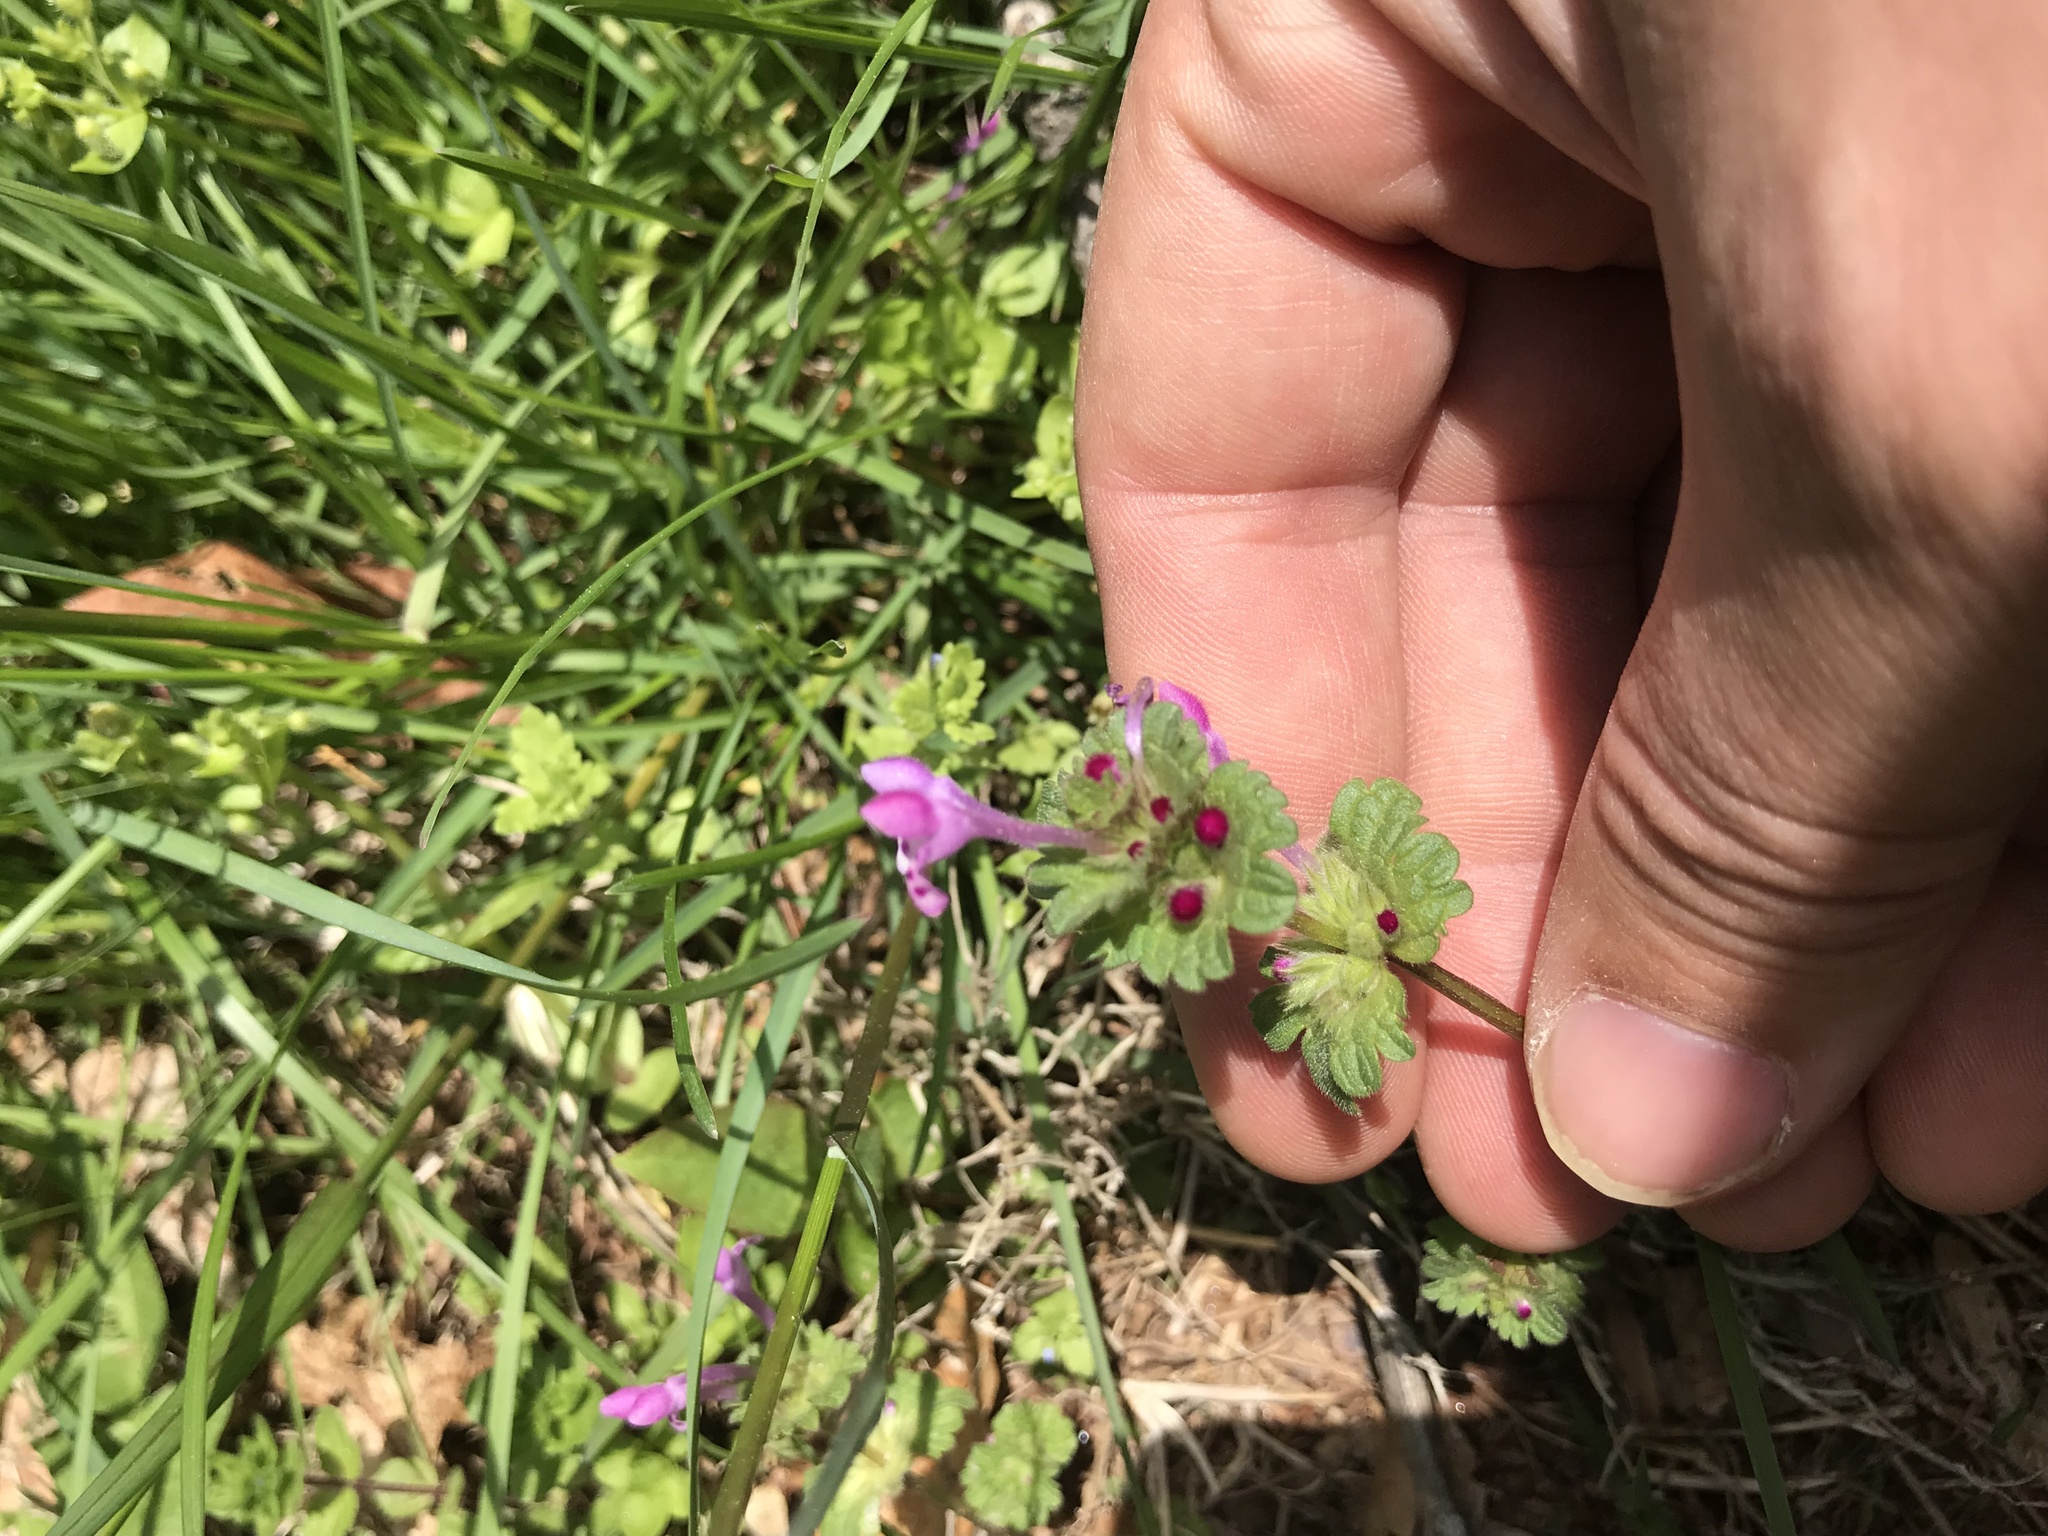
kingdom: Plantae
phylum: Tracheophyta
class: Magnoliopsida
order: Lamiales
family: Lamiaceae
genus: Lamium
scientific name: Lamium amplexicaule
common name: Henbit dead-nettle
